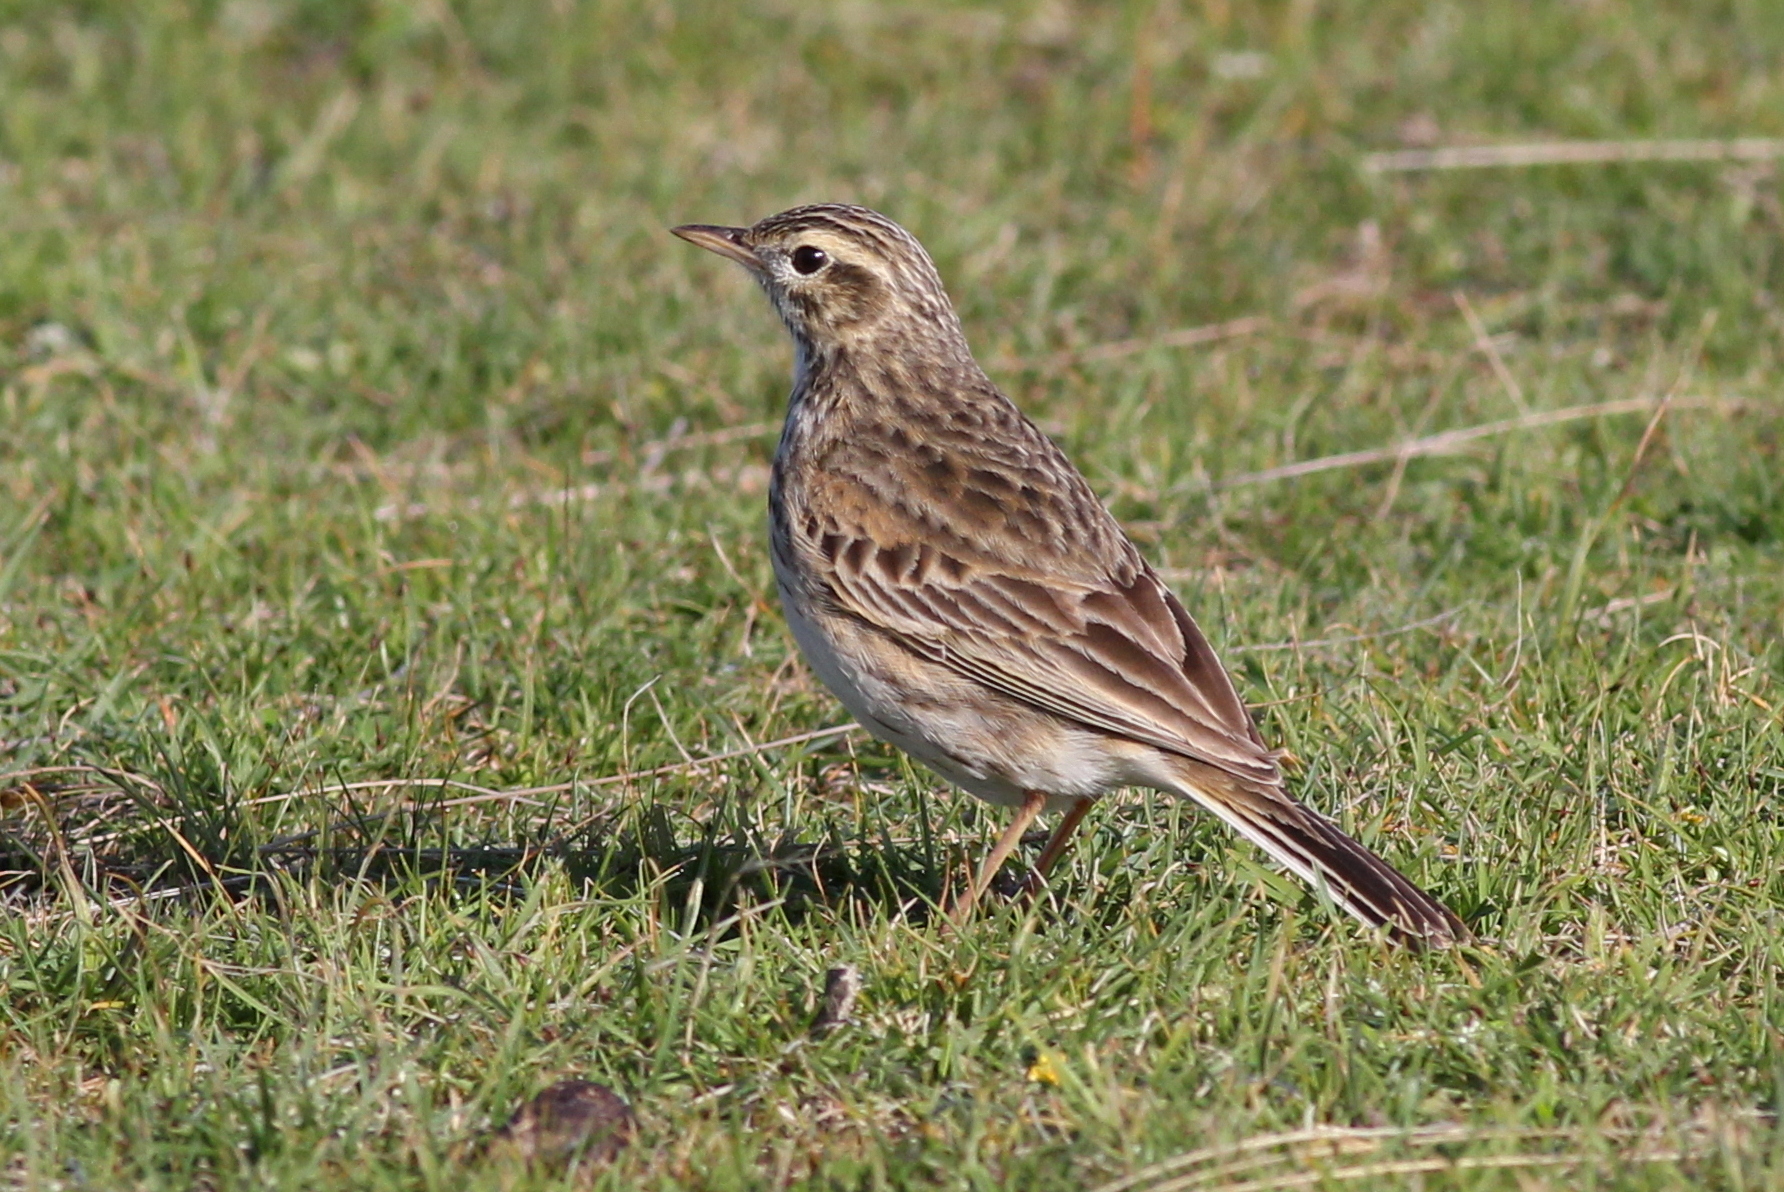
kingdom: Animalia
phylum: Chordata
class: Aves
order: Passeriformes
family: Motacillidae
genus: Anthus
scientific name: Anthus australis
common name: Australian pipit
